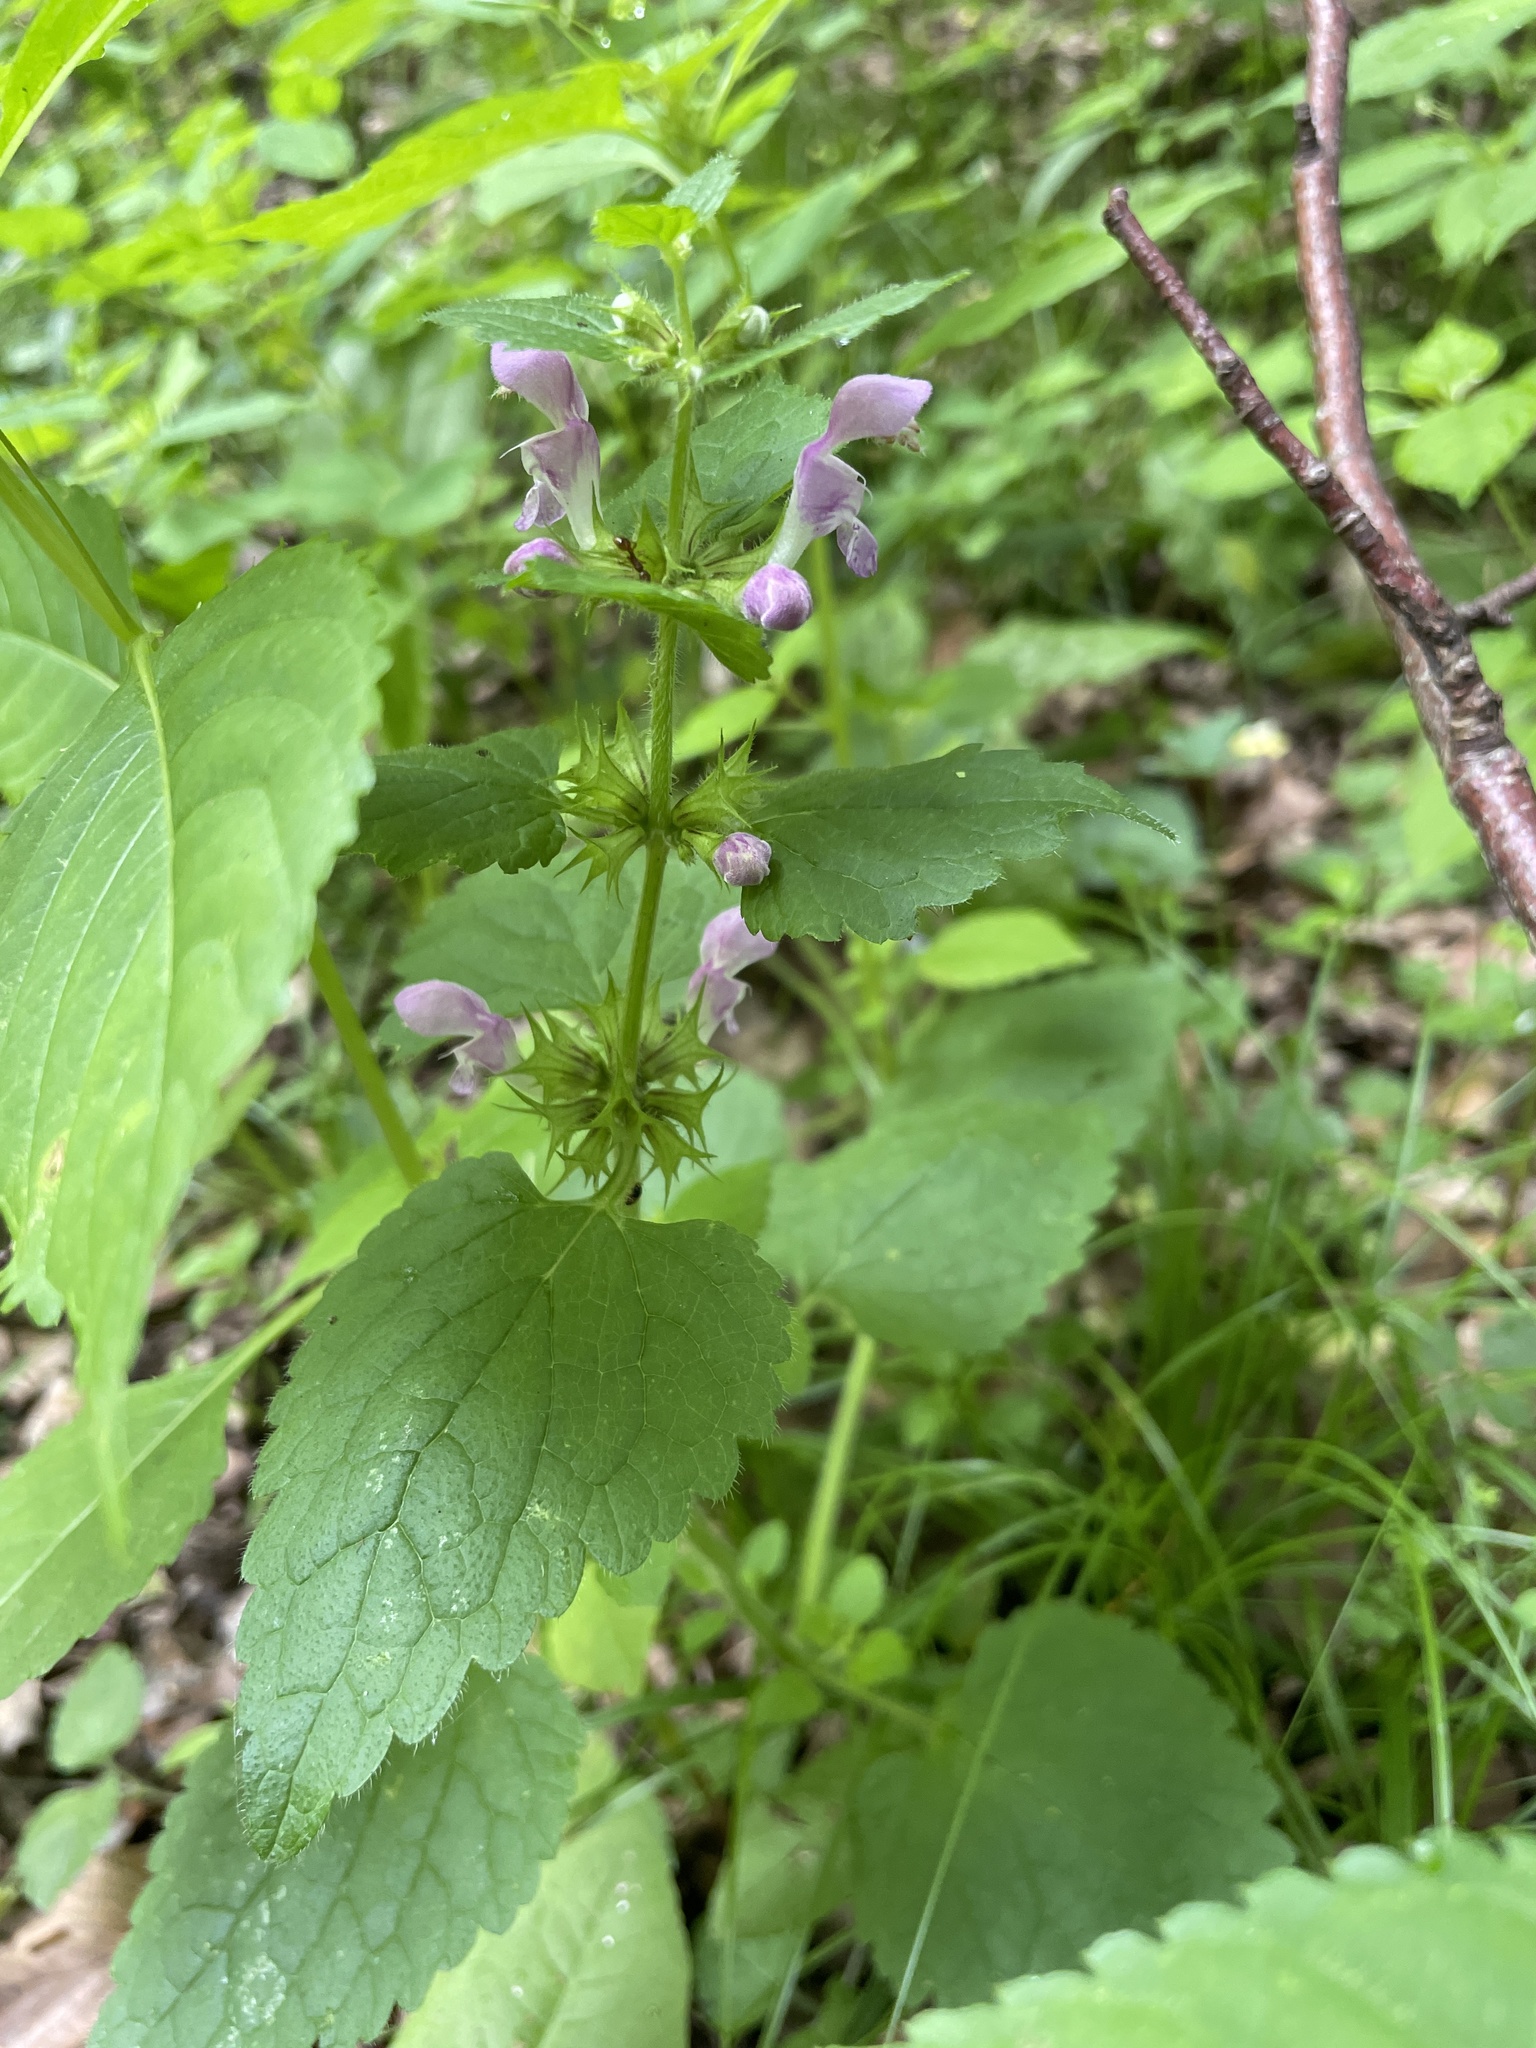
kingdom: Plantae
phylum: Tracheophyta
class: Magnoliopsida
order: Lamiales
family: Lamiaceae
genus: Lamium
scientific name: Lamium maculatum
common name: Spotted dead-nettle
